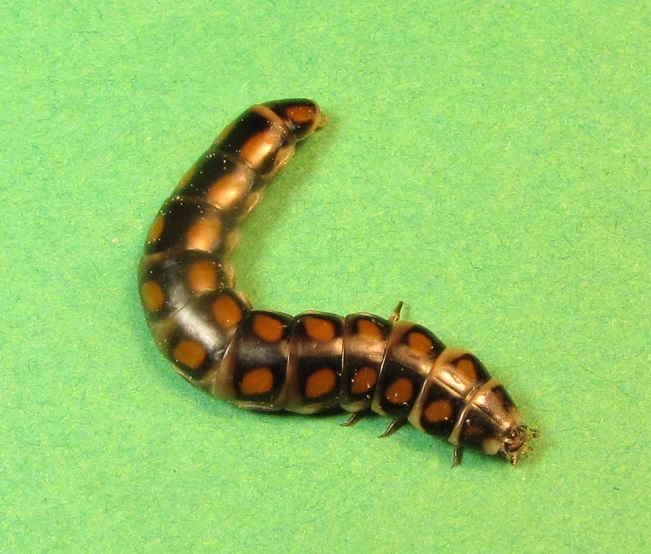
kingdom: Animalia
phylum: Arthropoda
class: Insecta
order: Coleoptera
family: Phengodidae
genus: Phengodes
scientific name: Phengodes
